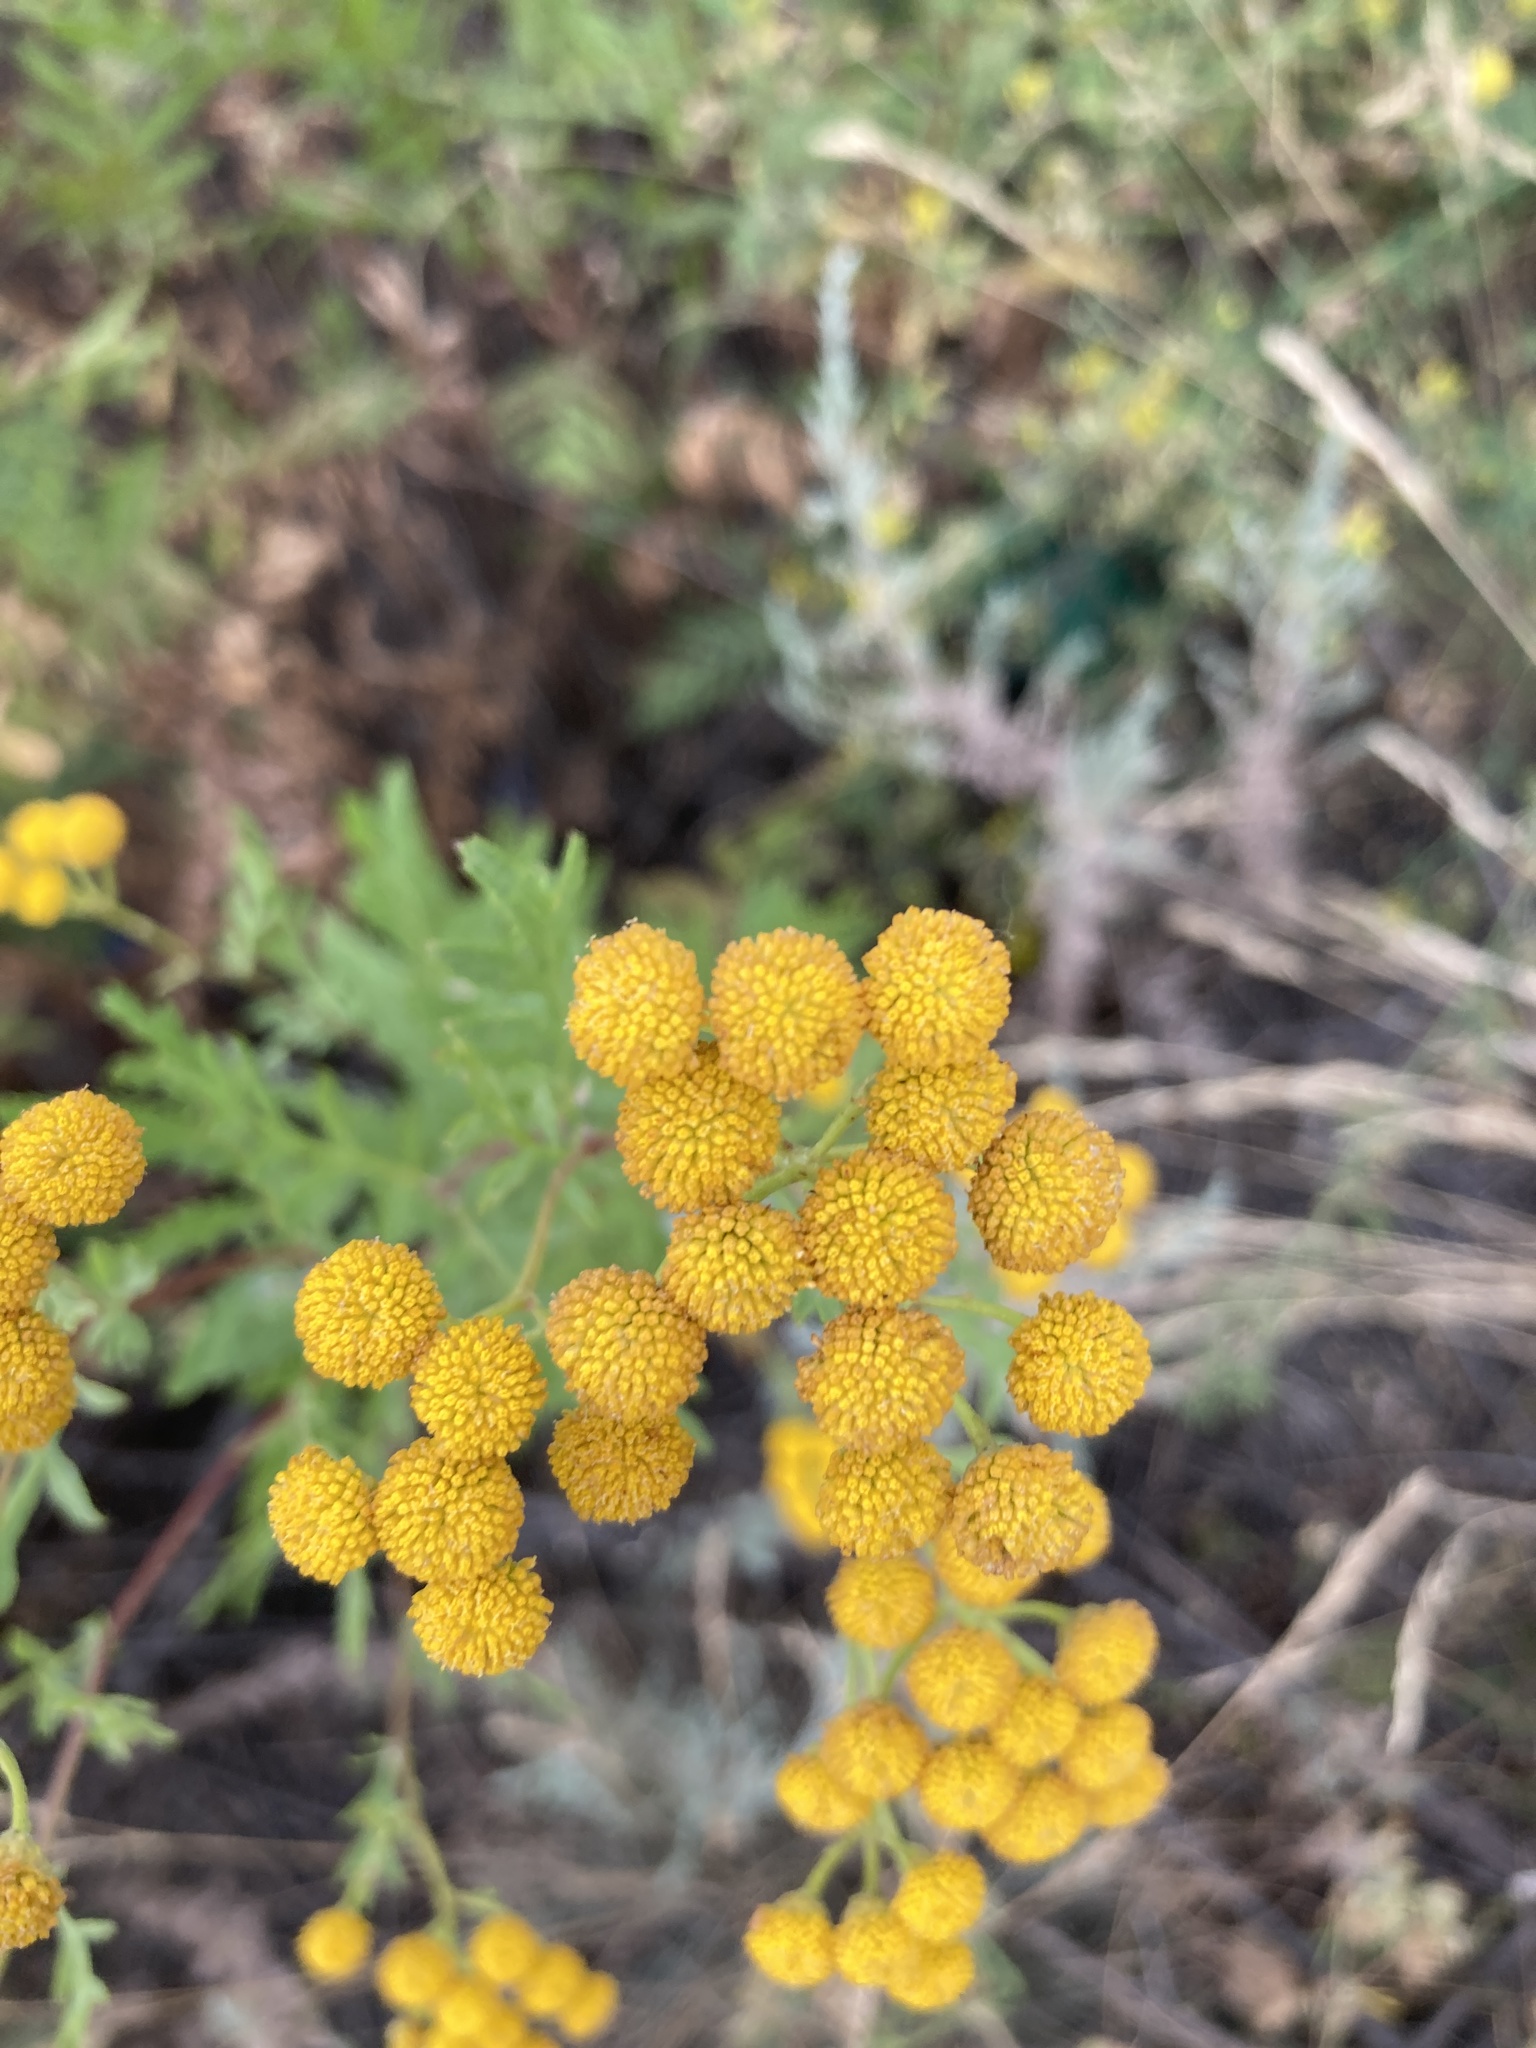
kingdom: Plantae
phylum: Tracheophyta
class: Magnoliopsida
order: Asterales
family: Asteraceae
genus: Tanacetum
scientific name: Tanacetum vulgare
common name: Common tansy
